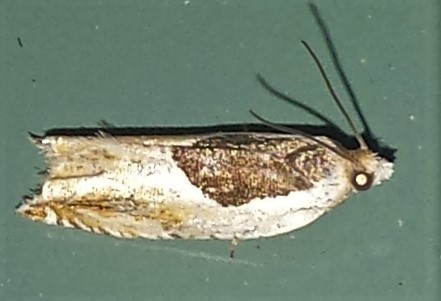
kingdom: Animalia
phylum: Arthropoda
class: Insecta
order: Lepidoptera
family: Tortricidae
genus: Ancylis
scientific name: Ancylis burgessiana
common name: Oak leaffolder moth
